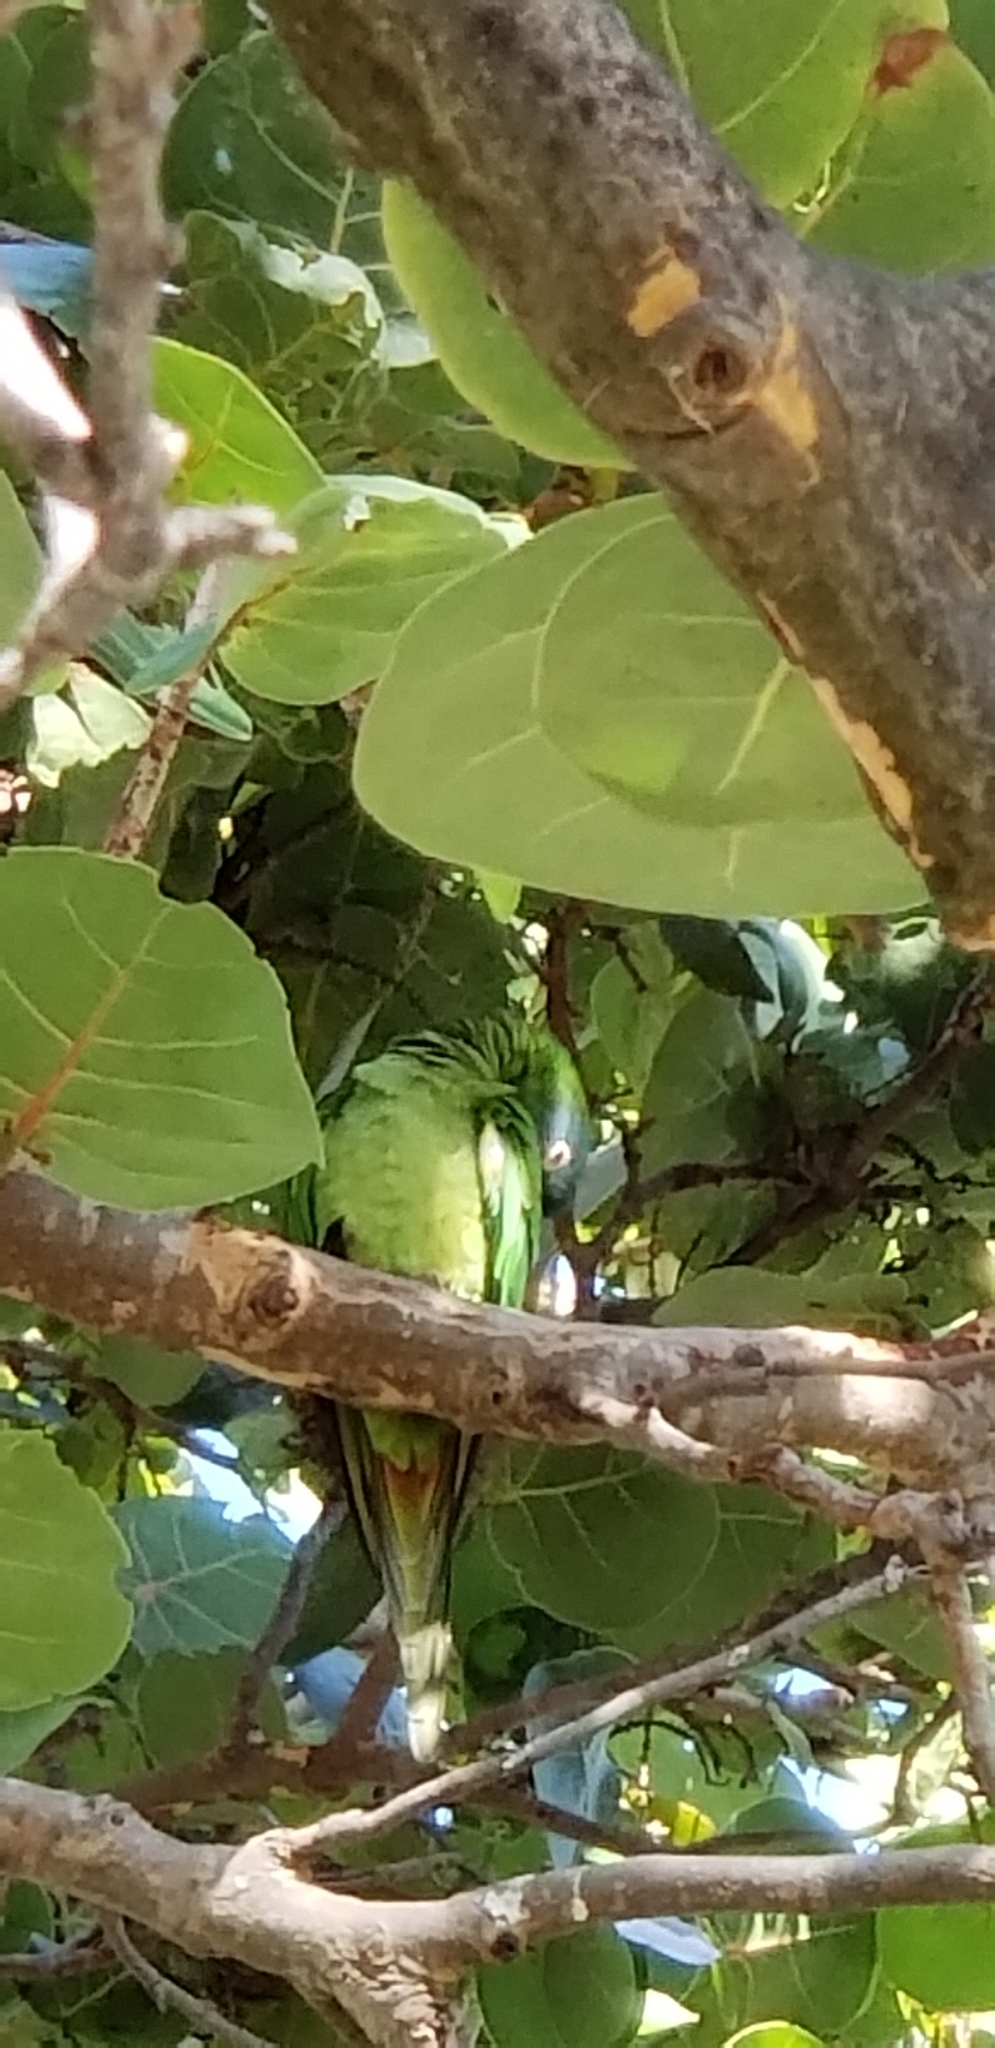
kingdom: Animalia
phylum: Chordata
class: Aves
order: Psittaciformes
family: Psittacidae
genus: Aratinga
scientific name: Aratinga acuticaudata
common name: Blue-crowned parakeet
